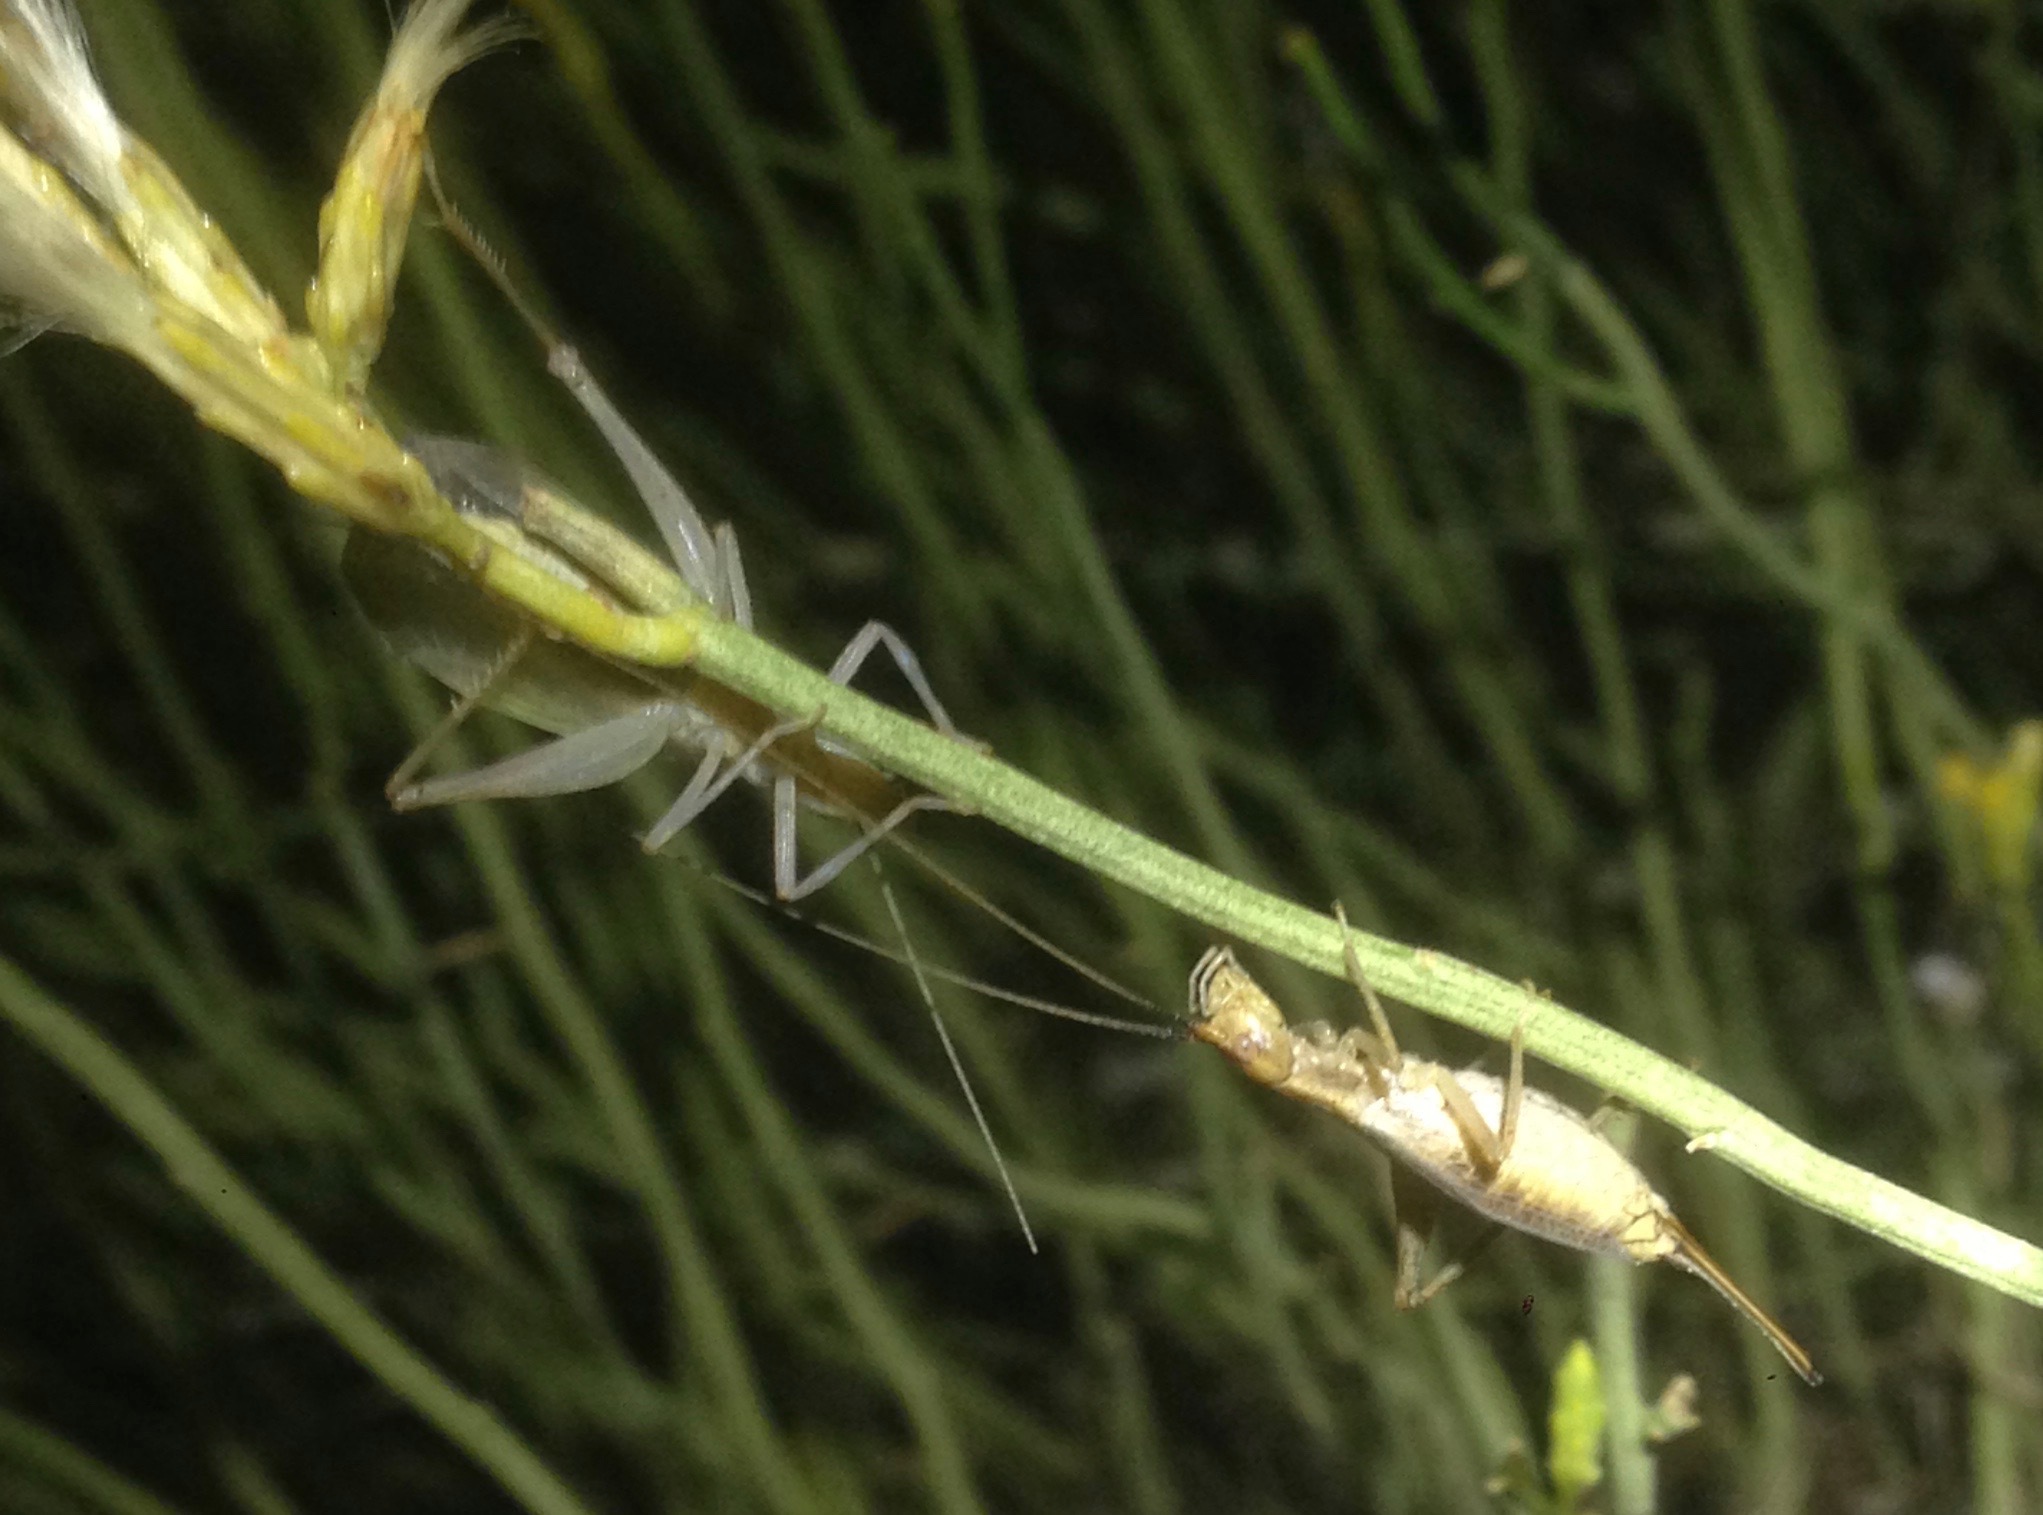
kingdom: Animalia
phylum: Arthropoda
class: Insecta
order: Orthoptera
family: Gryllidae
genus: Oecanthus
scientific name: Oecanthus californicus
